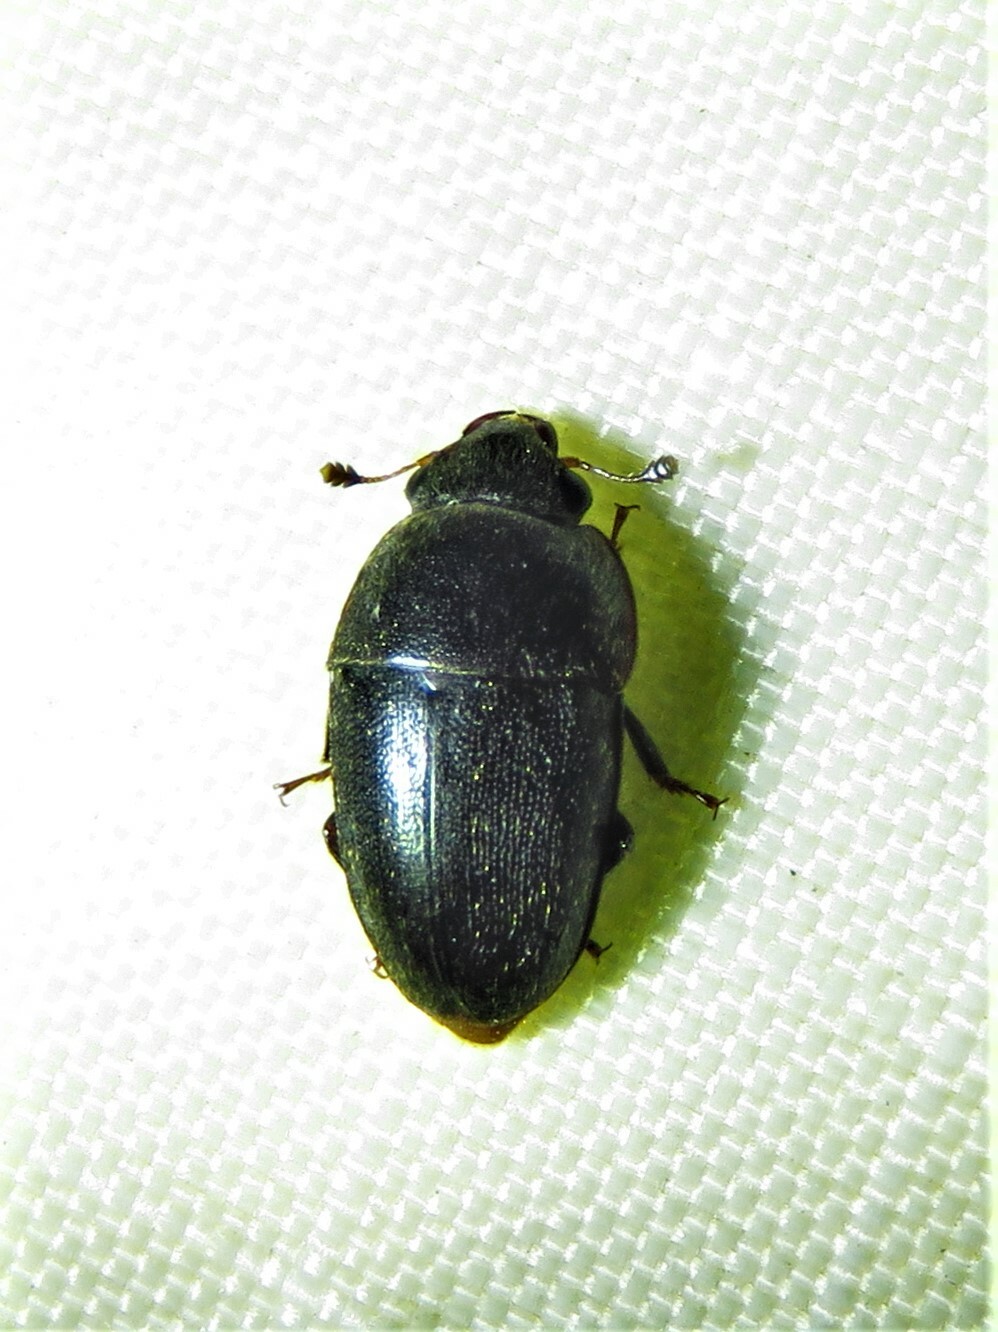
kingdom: Animalia
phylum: Arthropoda
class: Insecta
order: Coleoptera
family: Nitidulidae
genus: Cryptarcha
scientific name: Cryptarcha ampla
